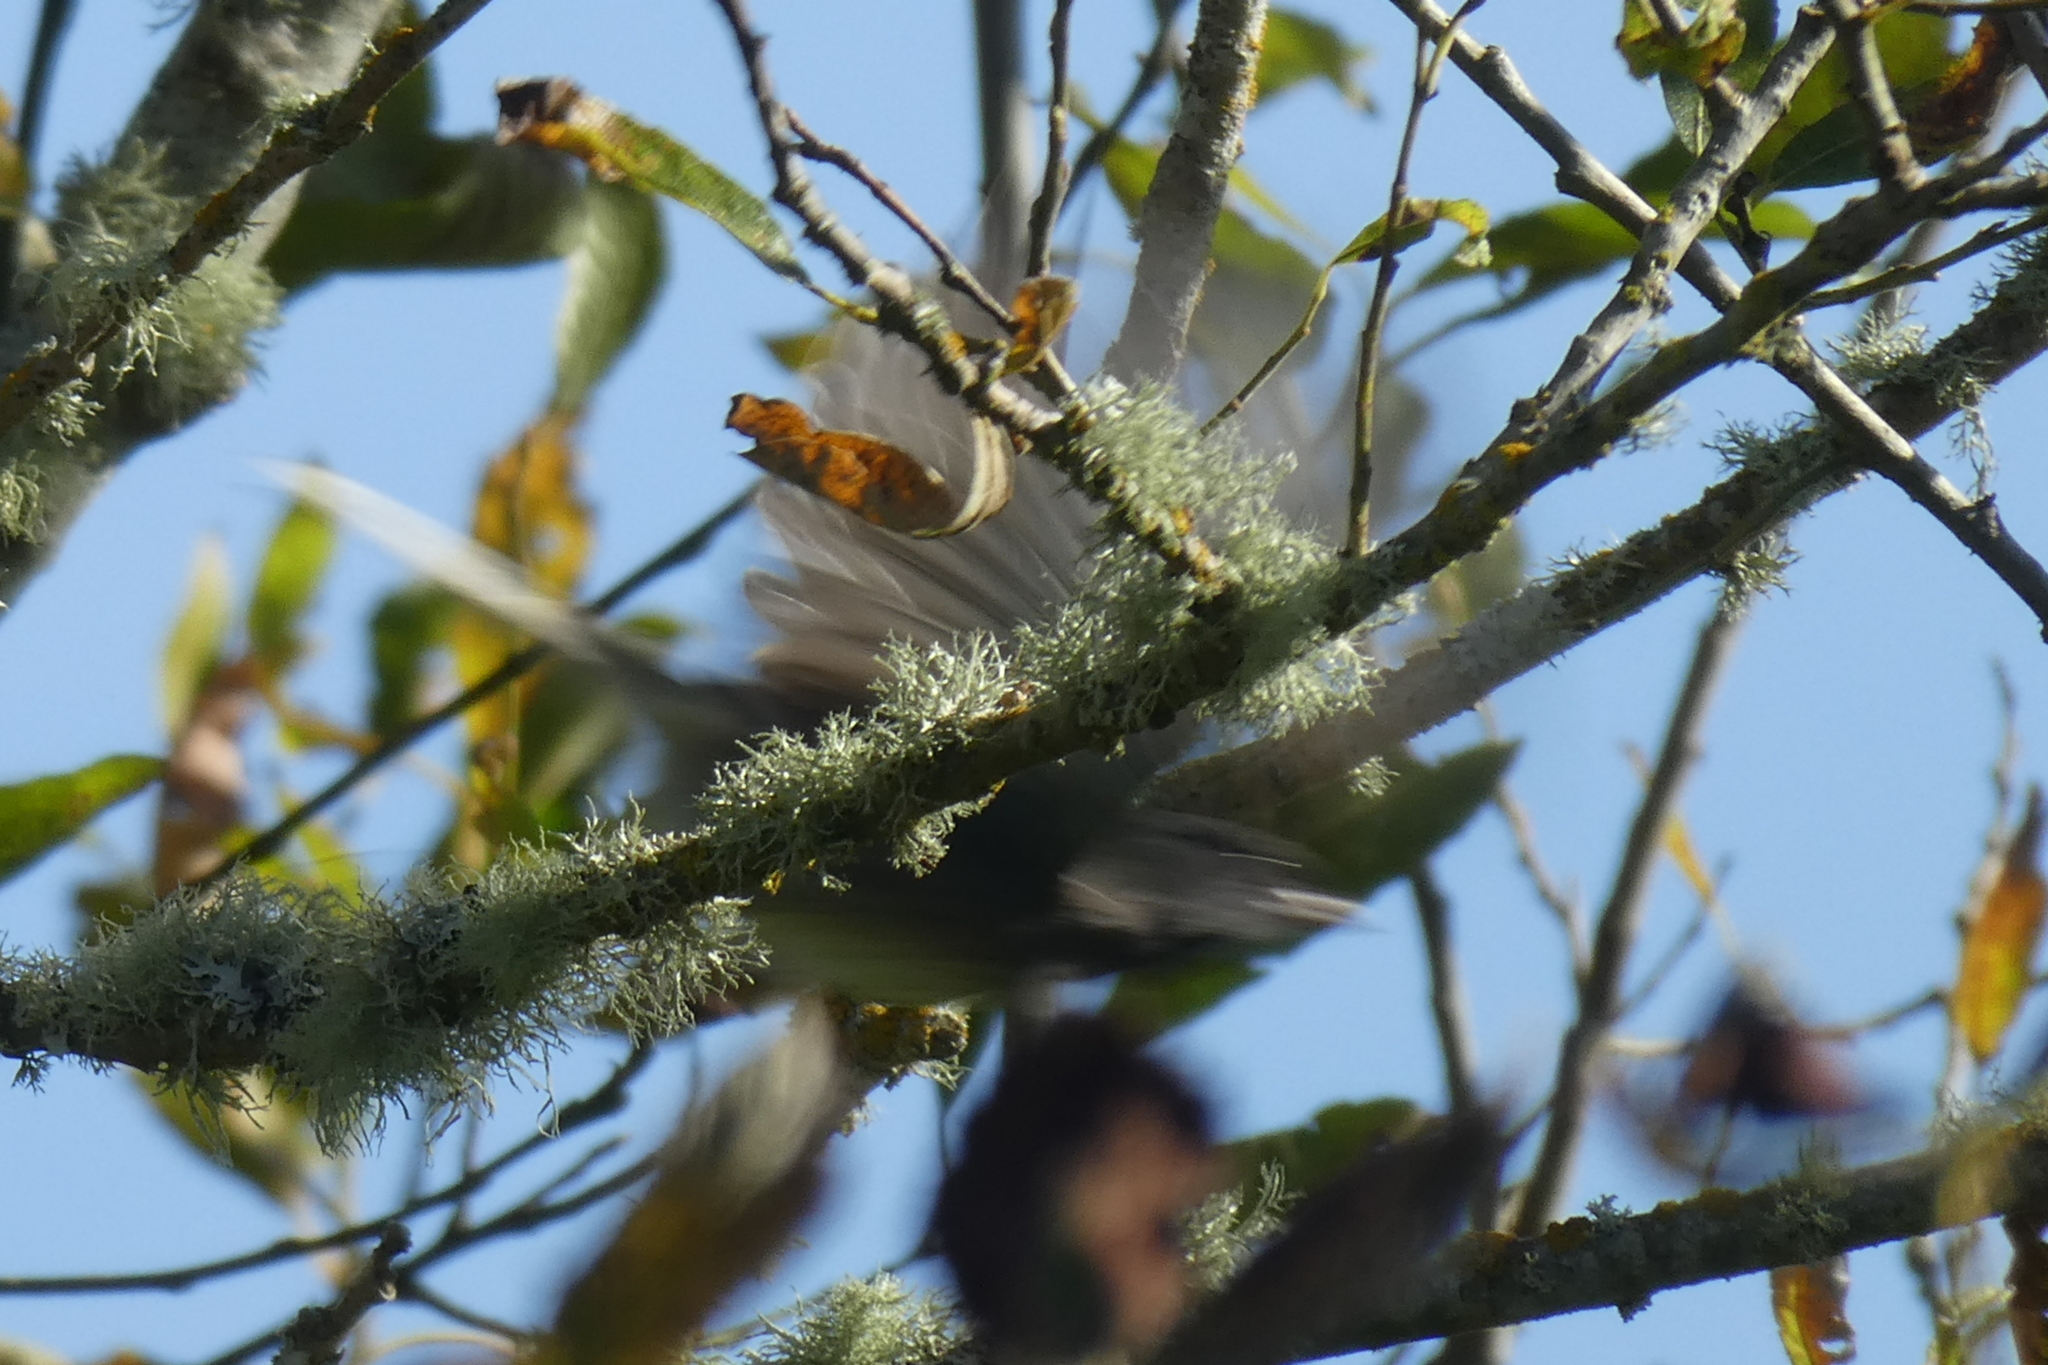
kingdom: Animalia
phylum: Chordata
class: Aves
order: Passeriformes
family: Passerellidae
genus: Junco
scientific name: Junco hyemalis
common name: Dark-eyed junco
